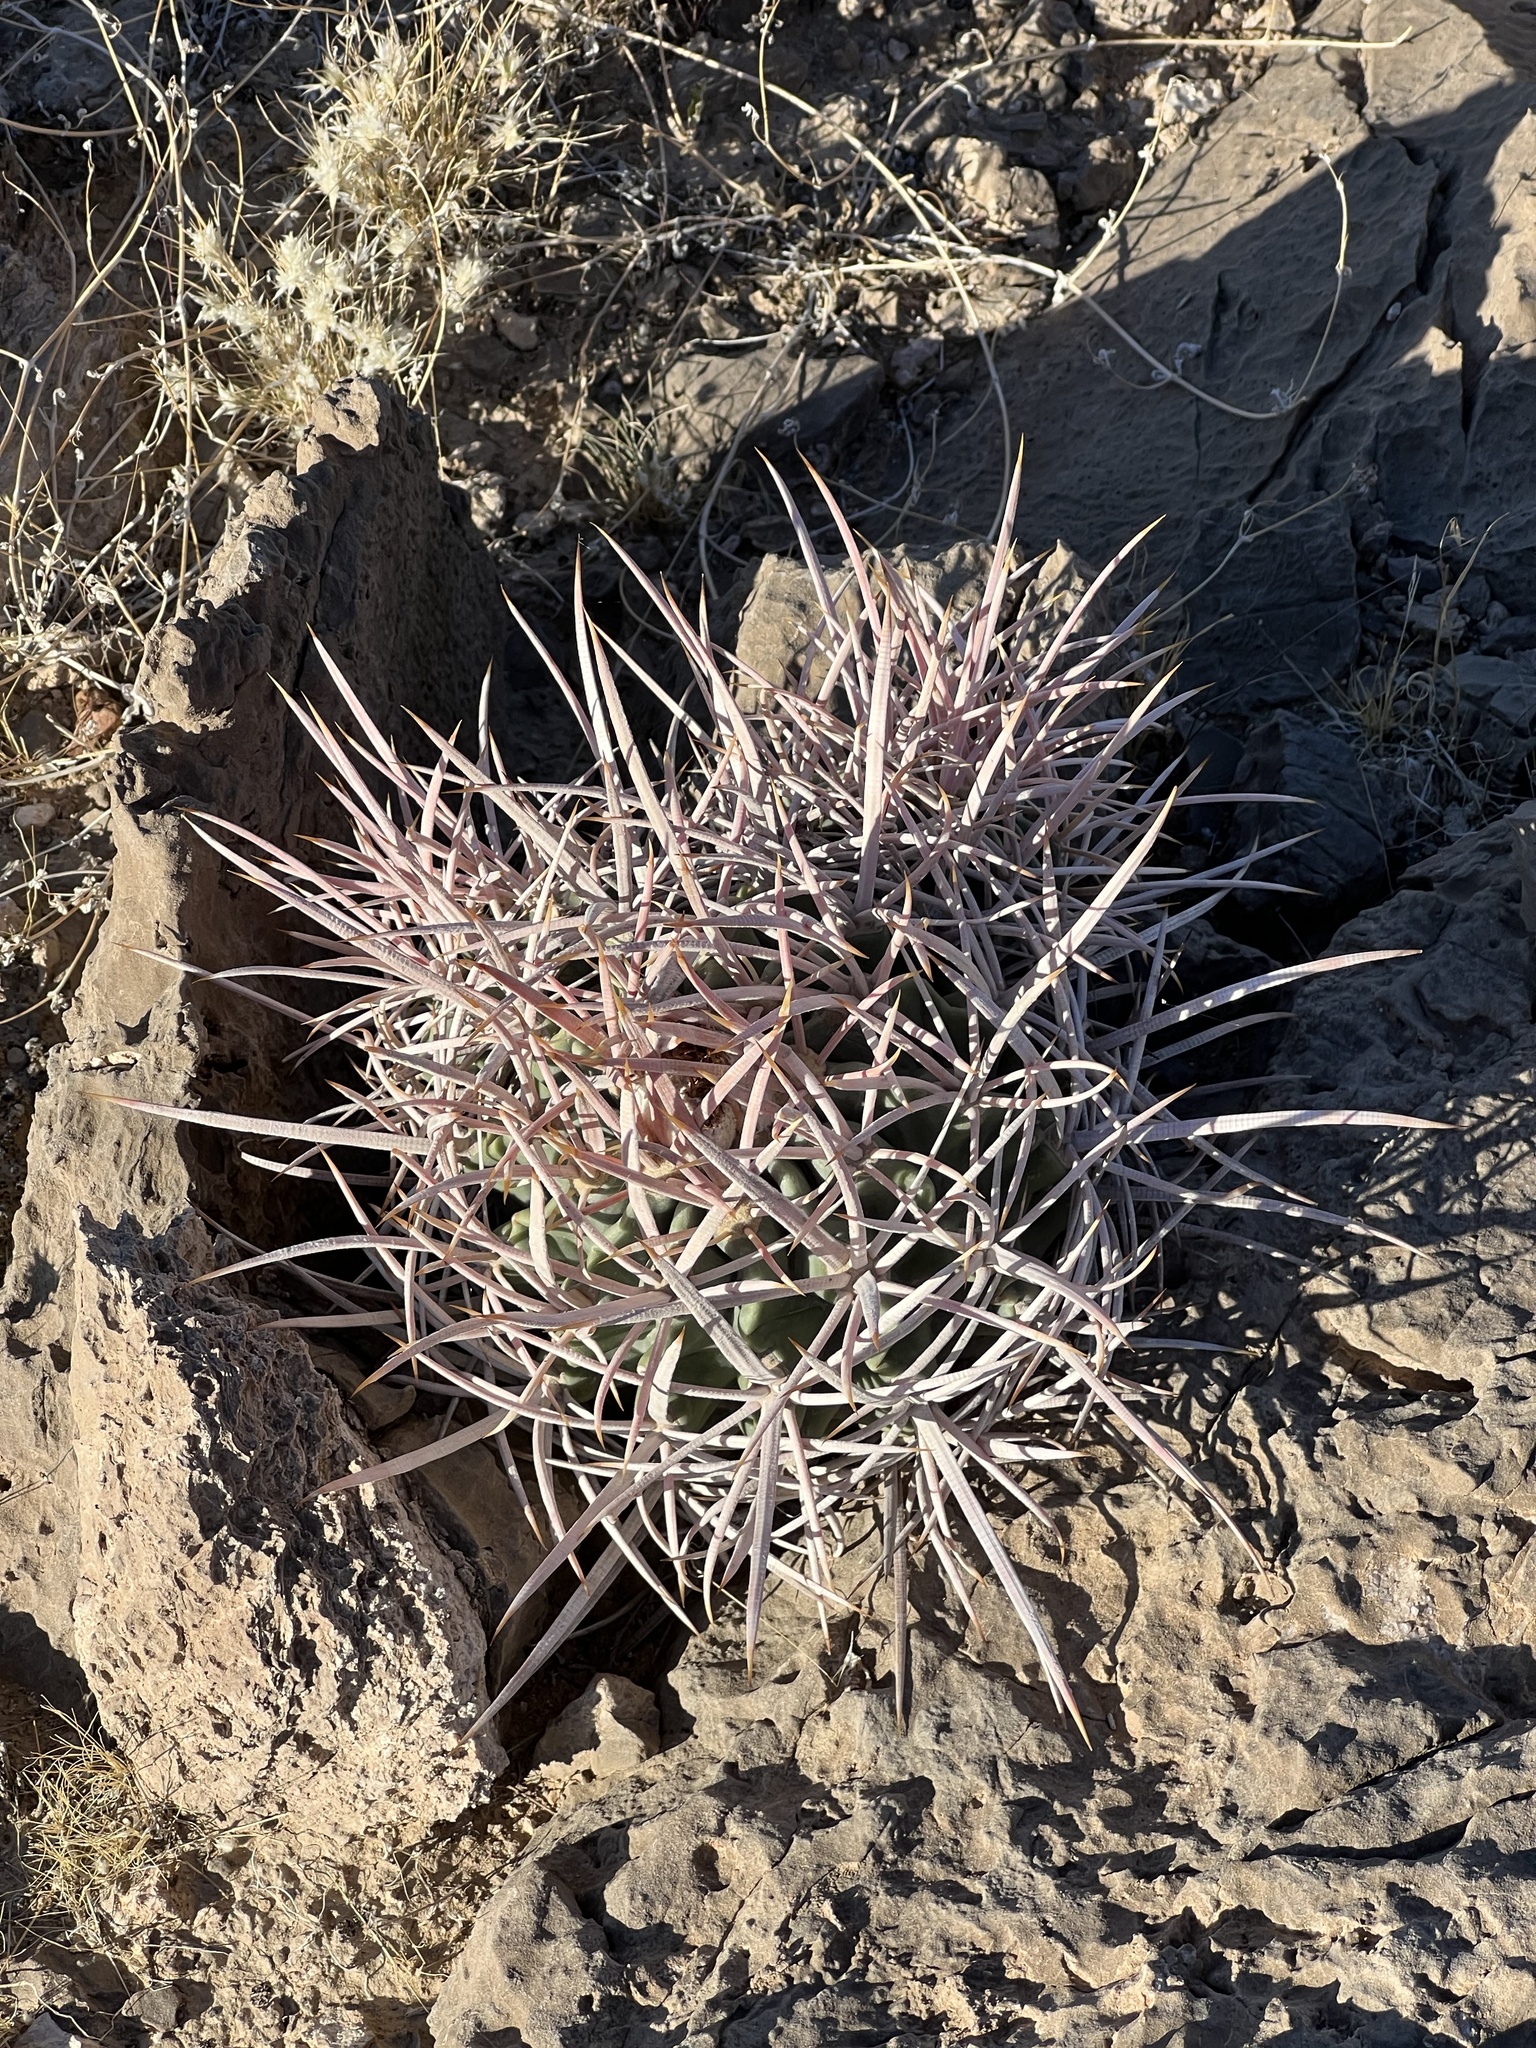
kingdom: Plantae
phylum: Tracheophyta
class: Magnoliopsida
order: Caryophyllales
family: Cactaceae
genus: Echinocactus
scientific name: Echinocactus polycephalus
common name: Cottontop cactus
